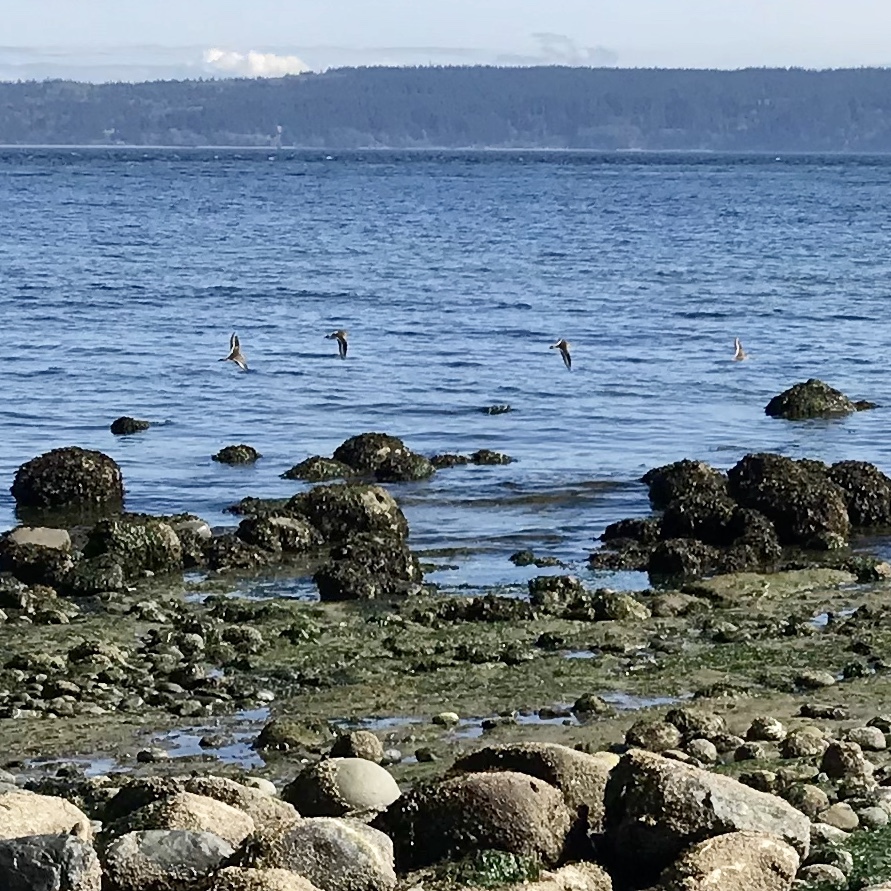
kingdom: Animalia
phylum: Chordata
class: Aves
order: Charadriiformes
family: Charadriidae
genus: Charadrius
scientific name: Charadrius vociferus
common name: Killdeer
